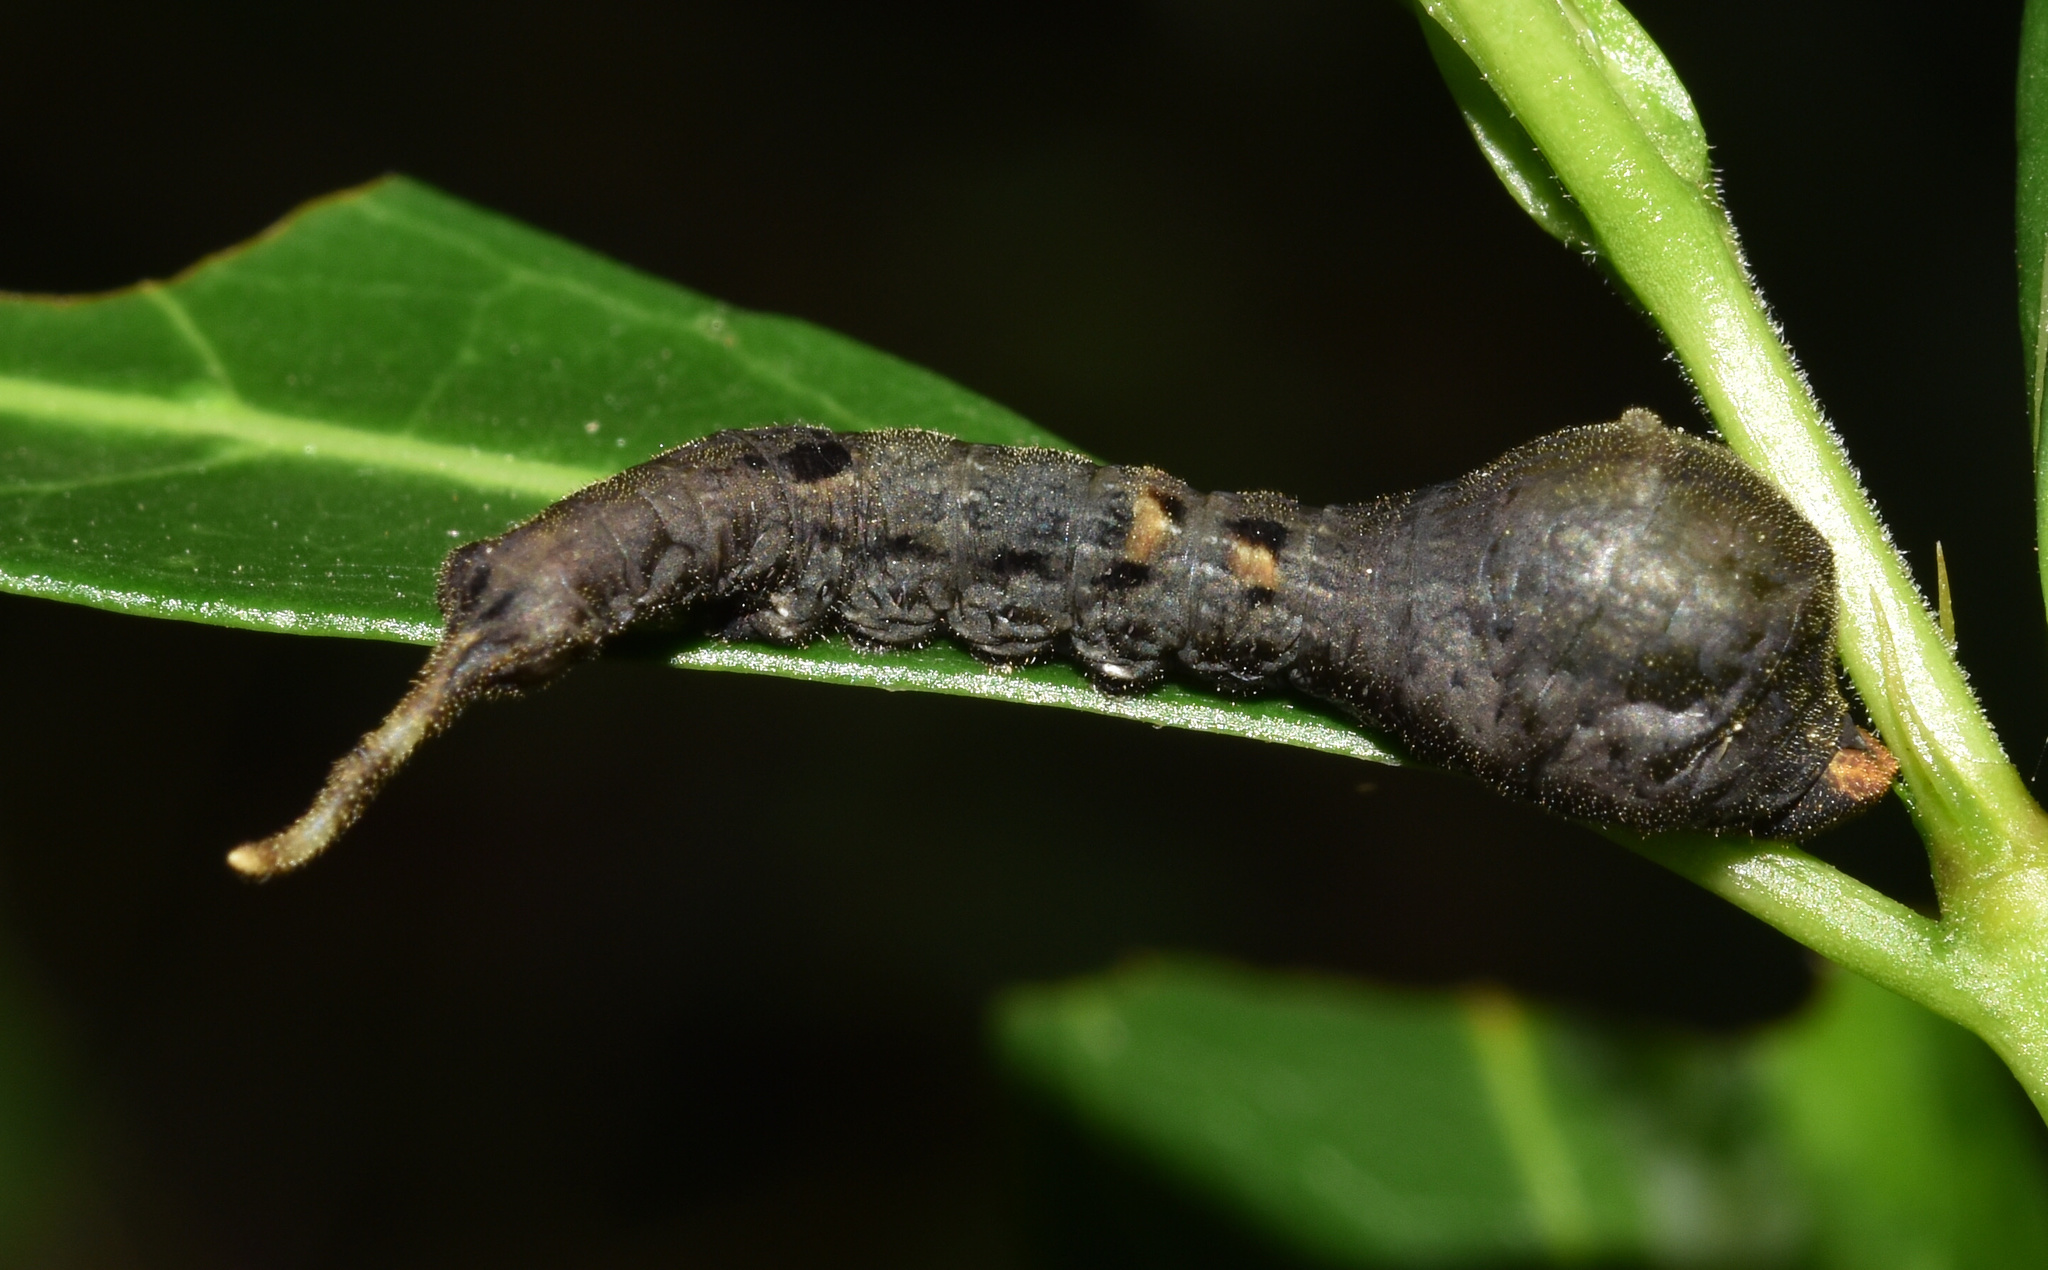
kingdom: Animalia
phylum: Arthropoda
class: Insecta
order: Lepidoptera
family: Drepanidae
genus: Negera
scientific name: Negera natalensis
